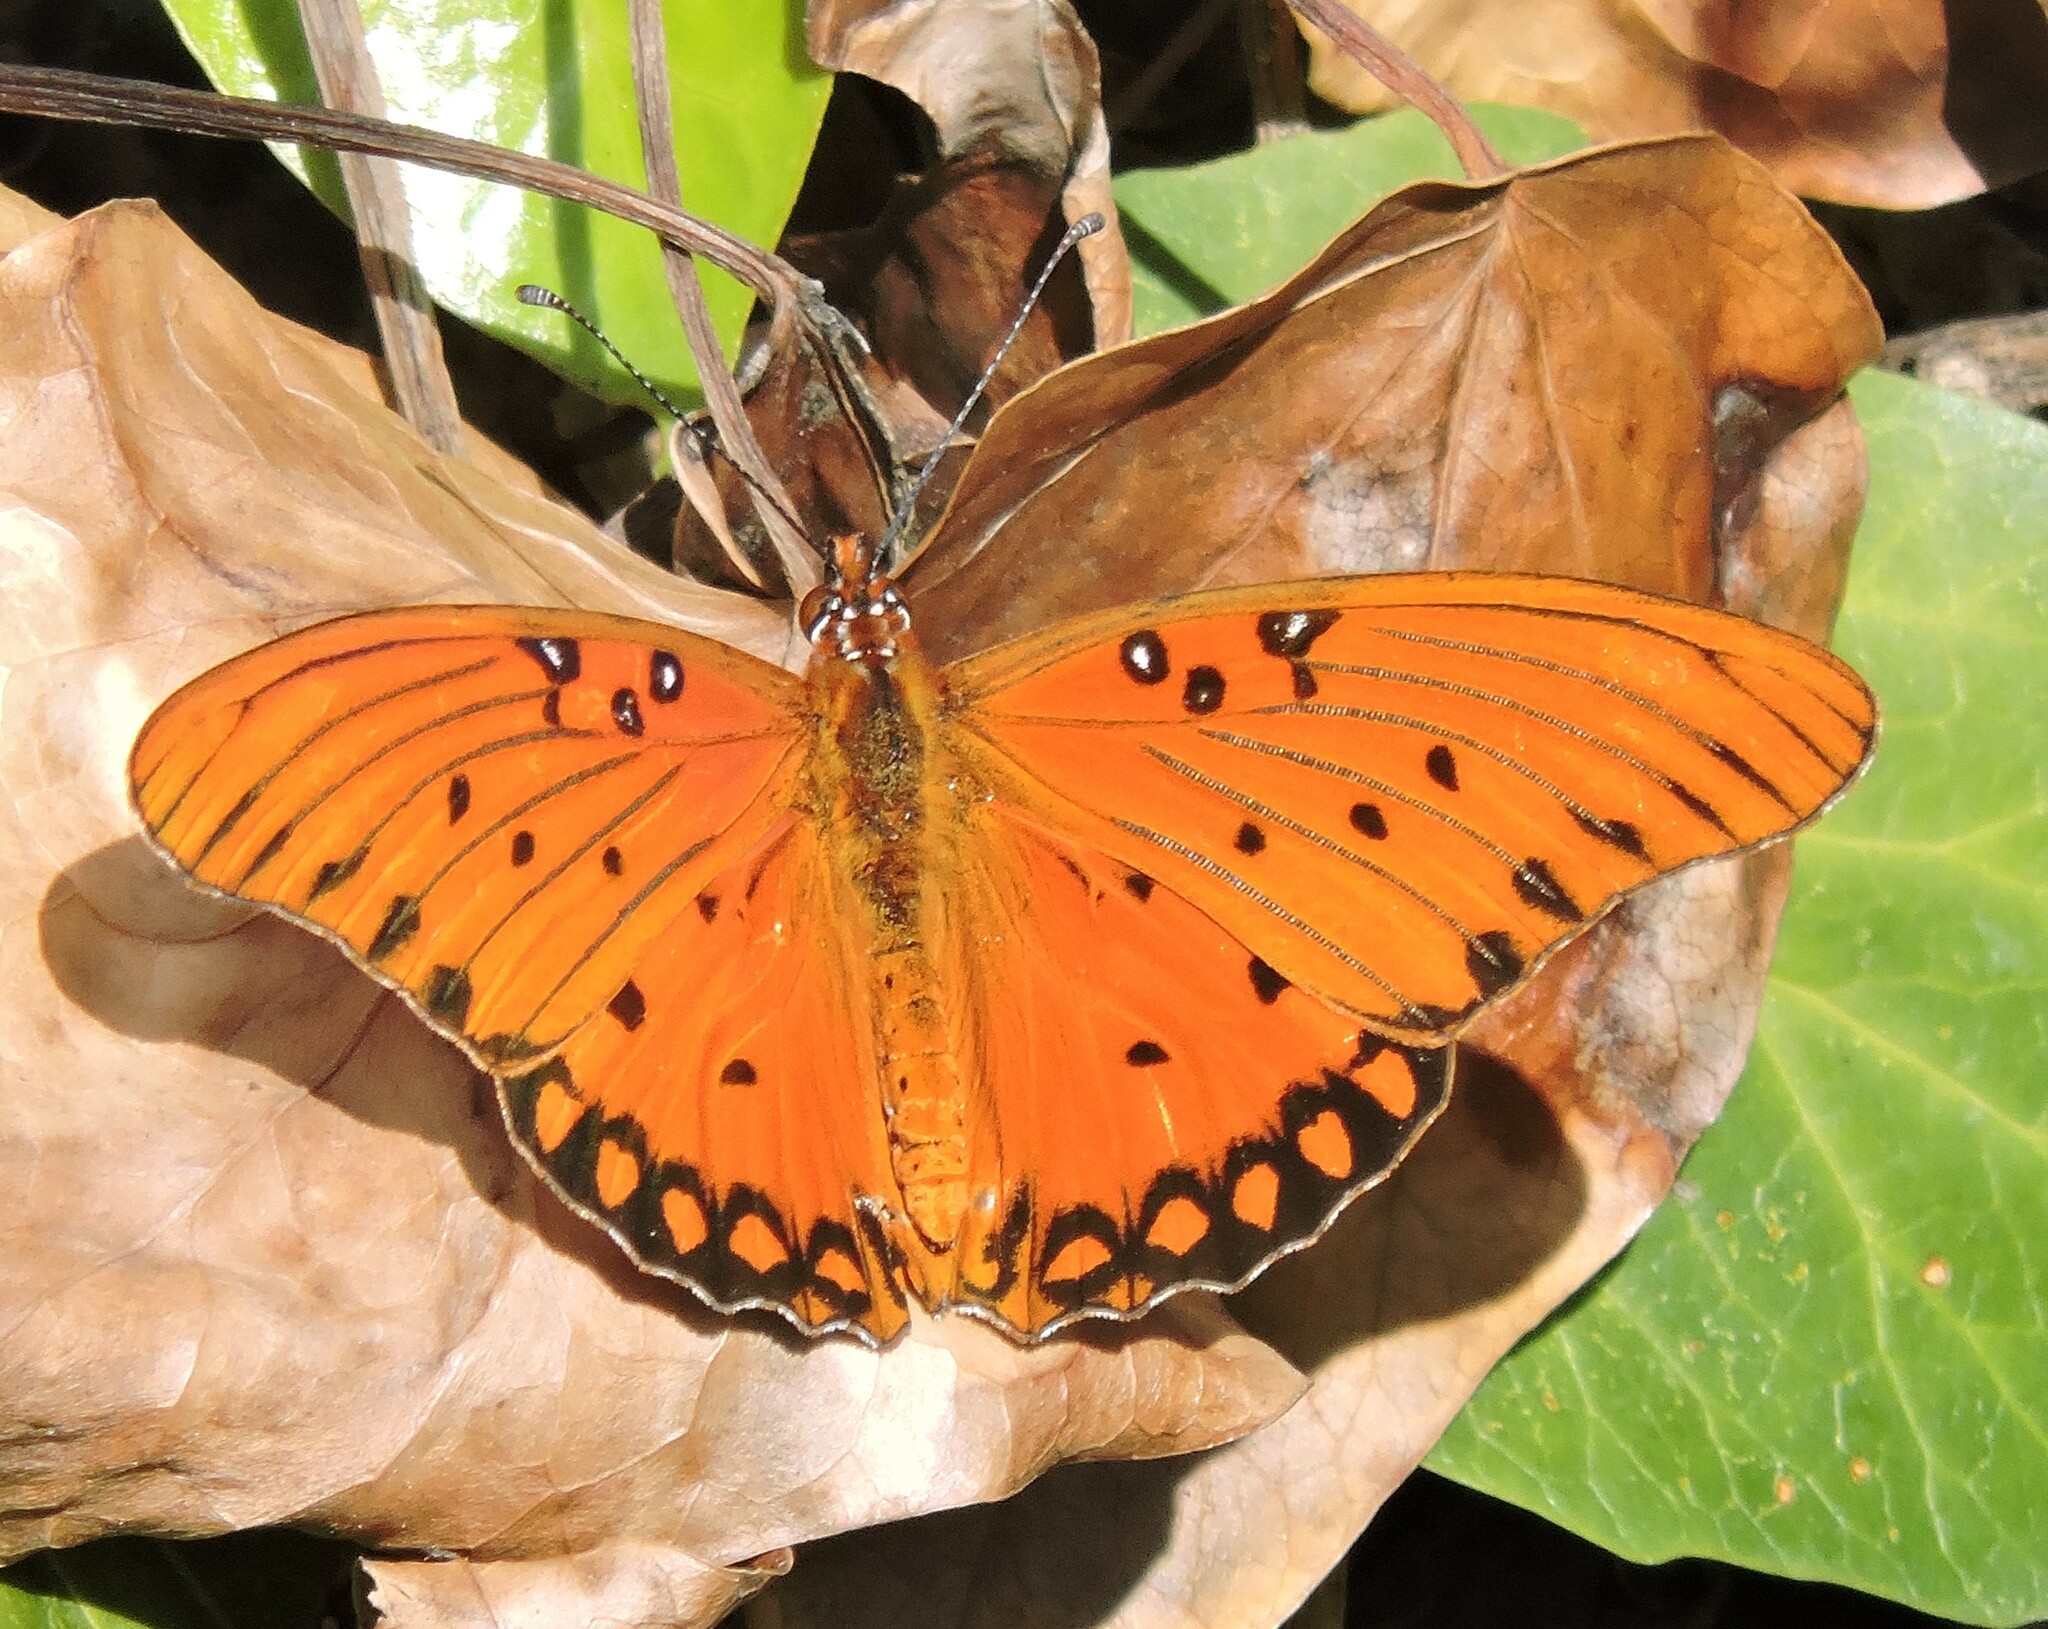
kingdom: Animalia
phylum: Arthropoda
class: Insecta
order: Lepidoptera
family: Nymphalidae
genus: Dione
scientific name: Dione vanillae
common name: Gulf fritillary
